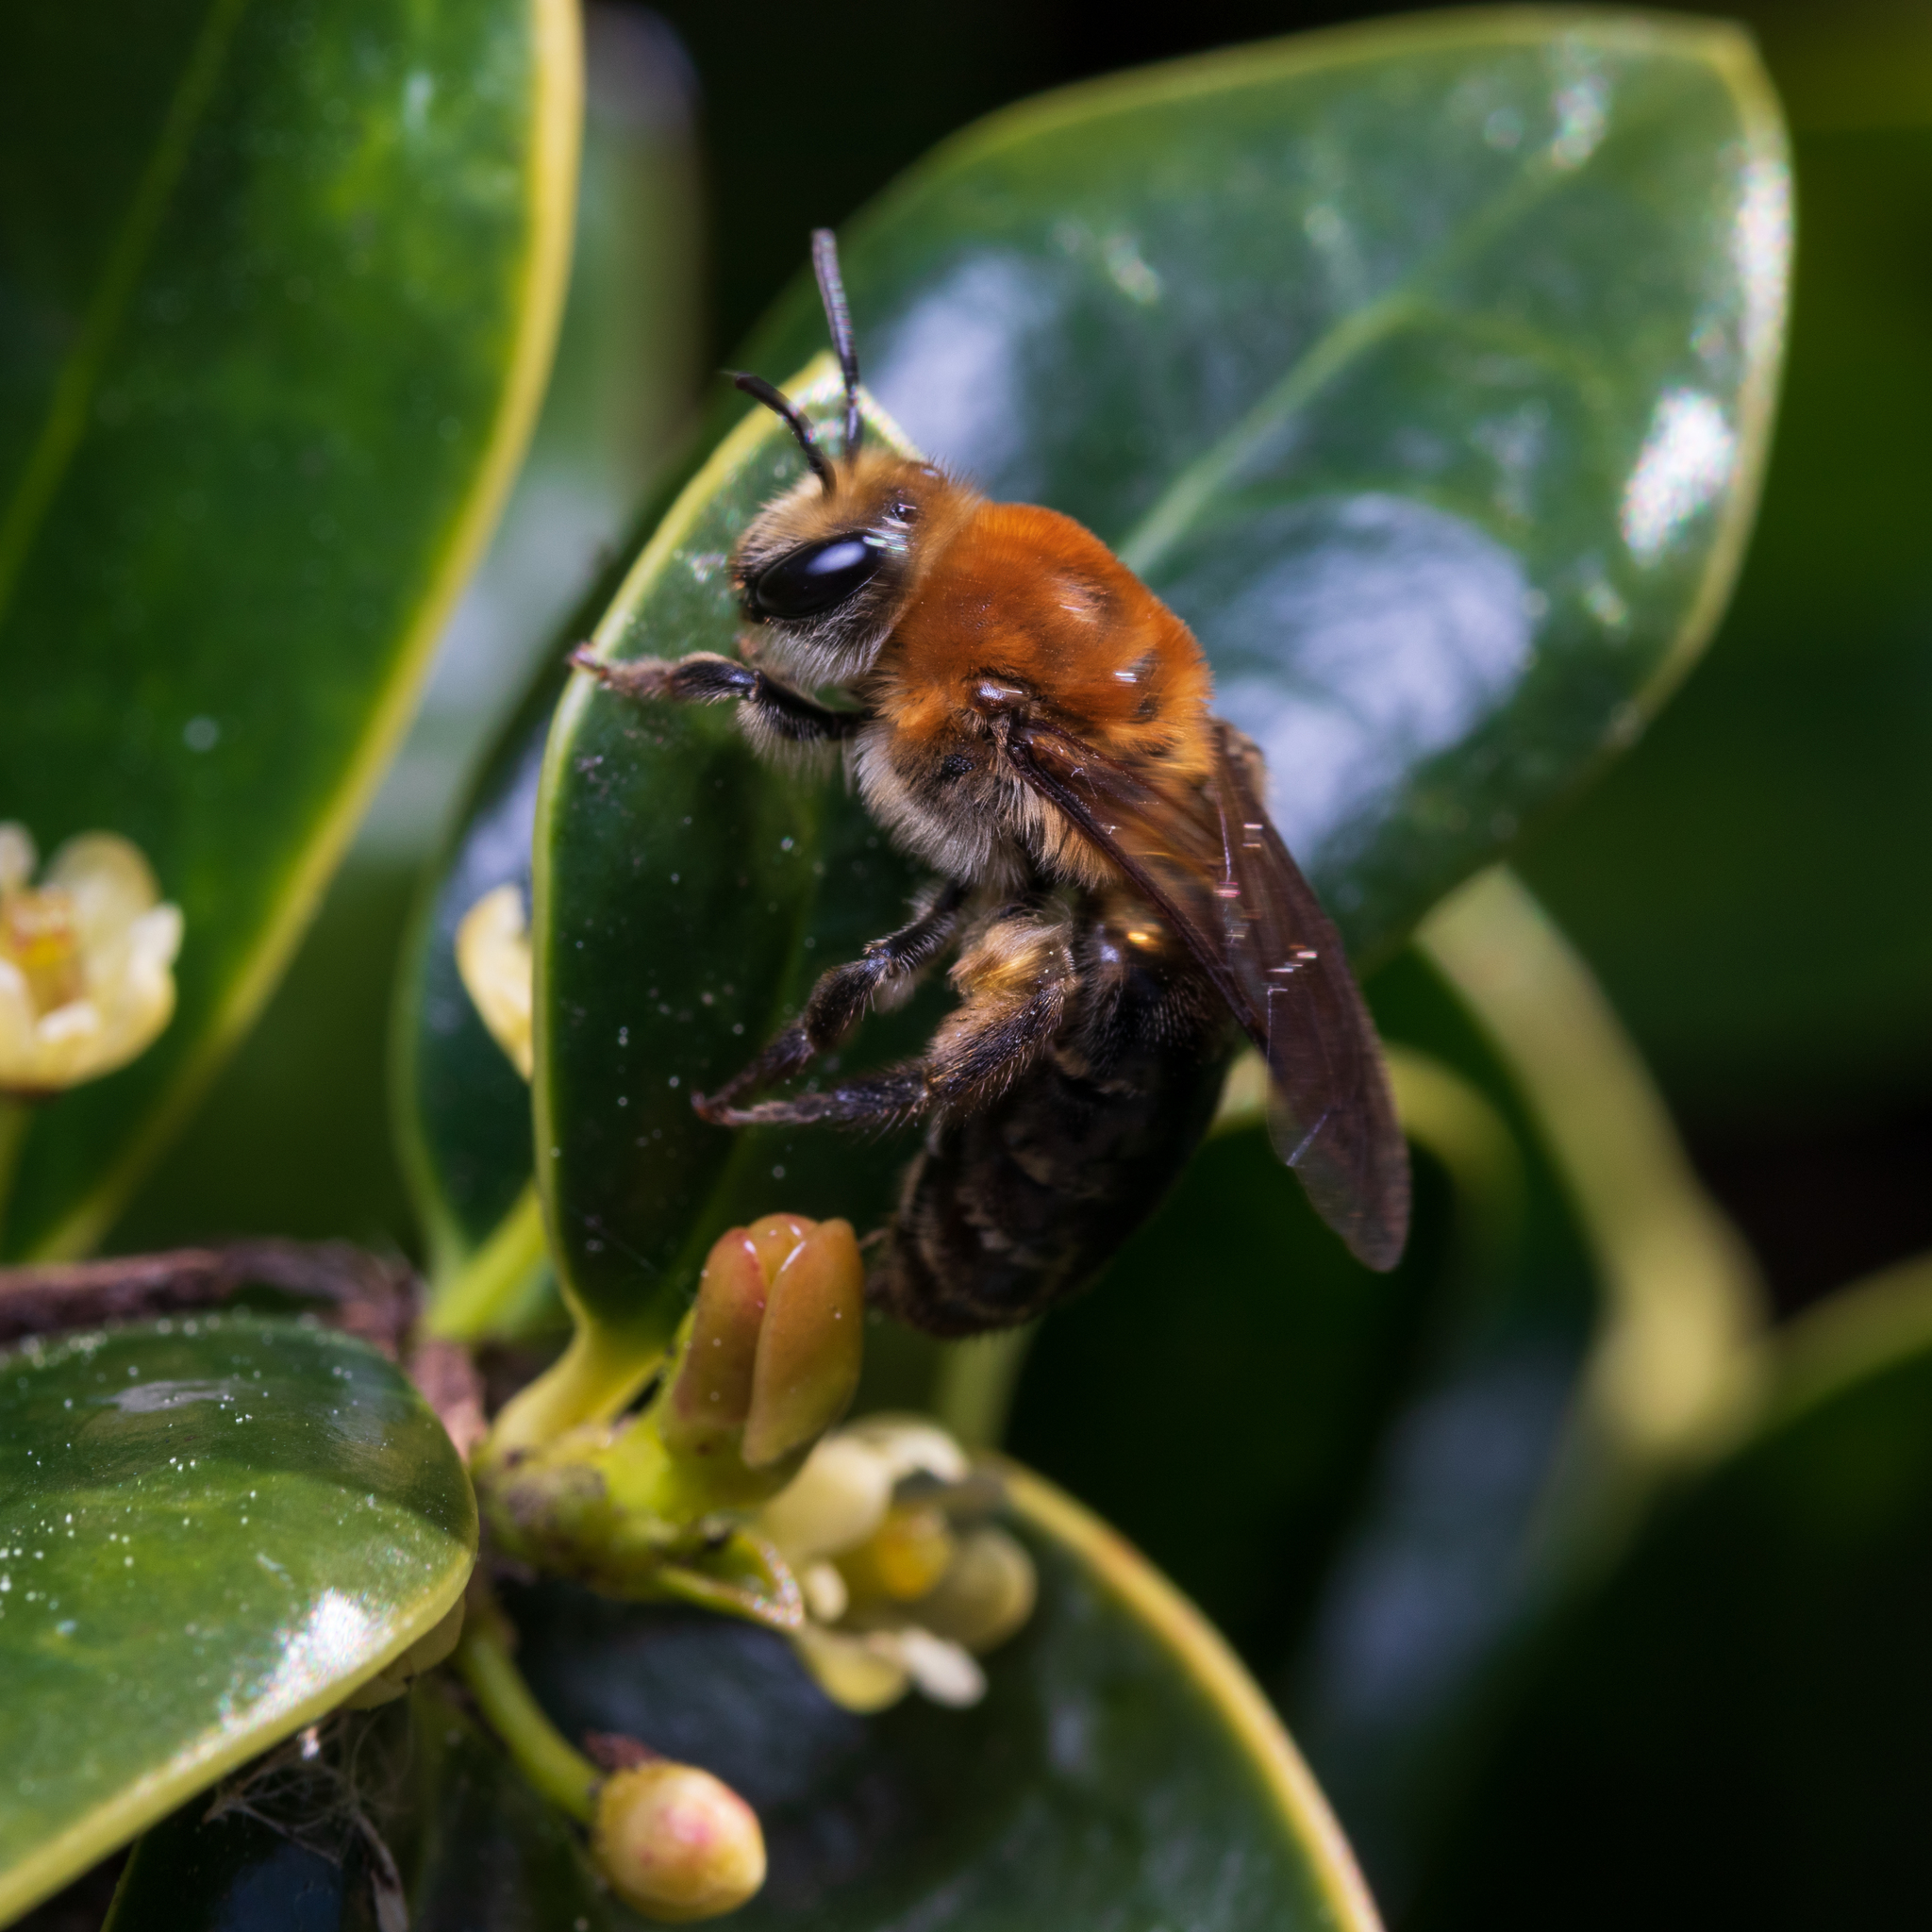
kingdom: Animalia
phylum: Arthropoda
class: Insecta
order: Hymenoptera
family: Colletidae
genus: Colletes
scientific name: Colletes thoracicus
